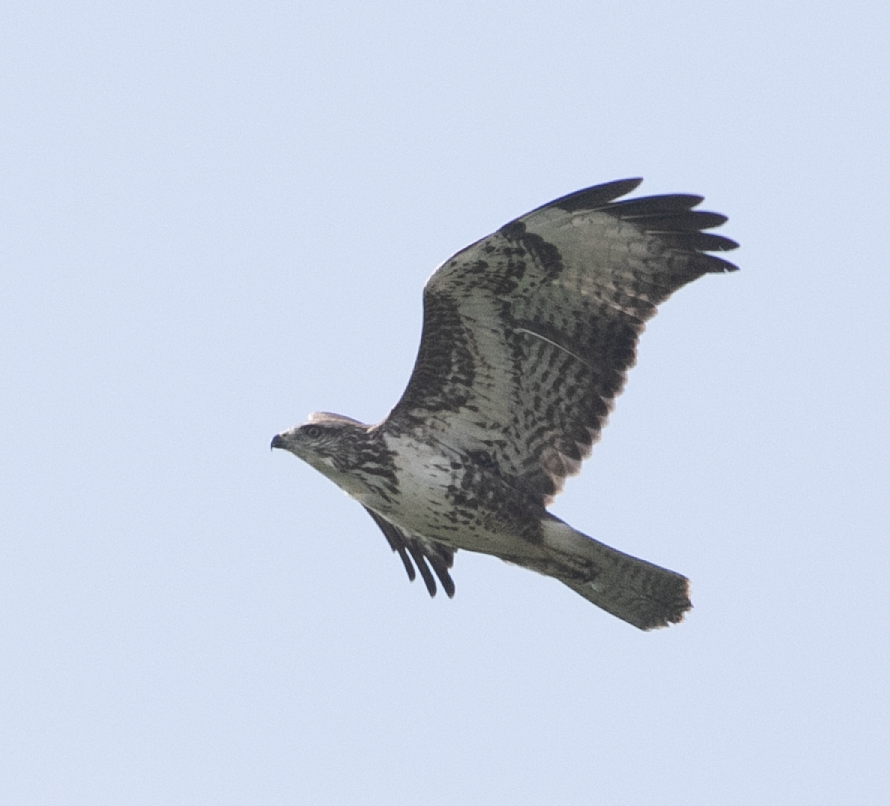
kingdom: Animalia
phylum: Chordata
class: Aves
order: Accipitriformes
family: Accipitridae
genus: Buteo
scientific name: Buteo buteo
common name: Common buzzard
